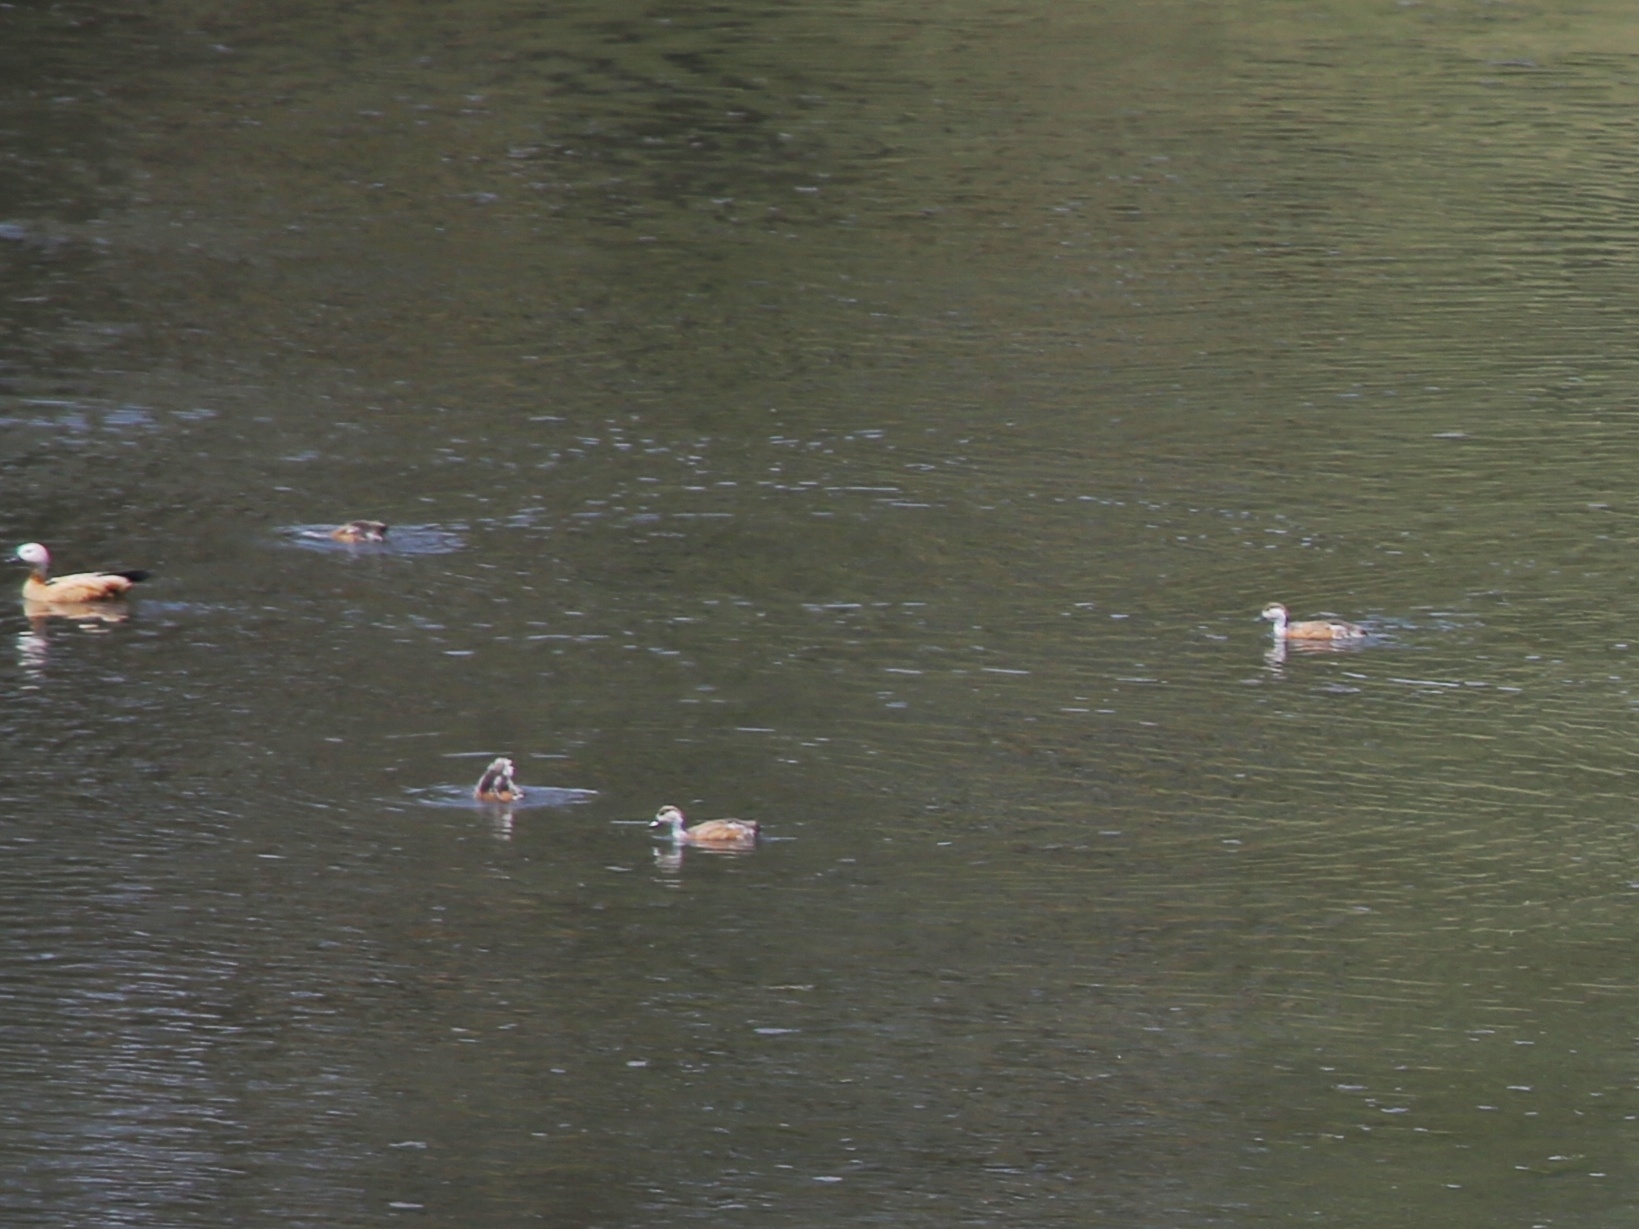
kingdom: Animalia
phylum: Chordata
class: Aves
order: Anseriformes
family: Anatidae
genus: Tadorna
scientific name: Tadorna ferruginea
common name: Ruddy shelduck
